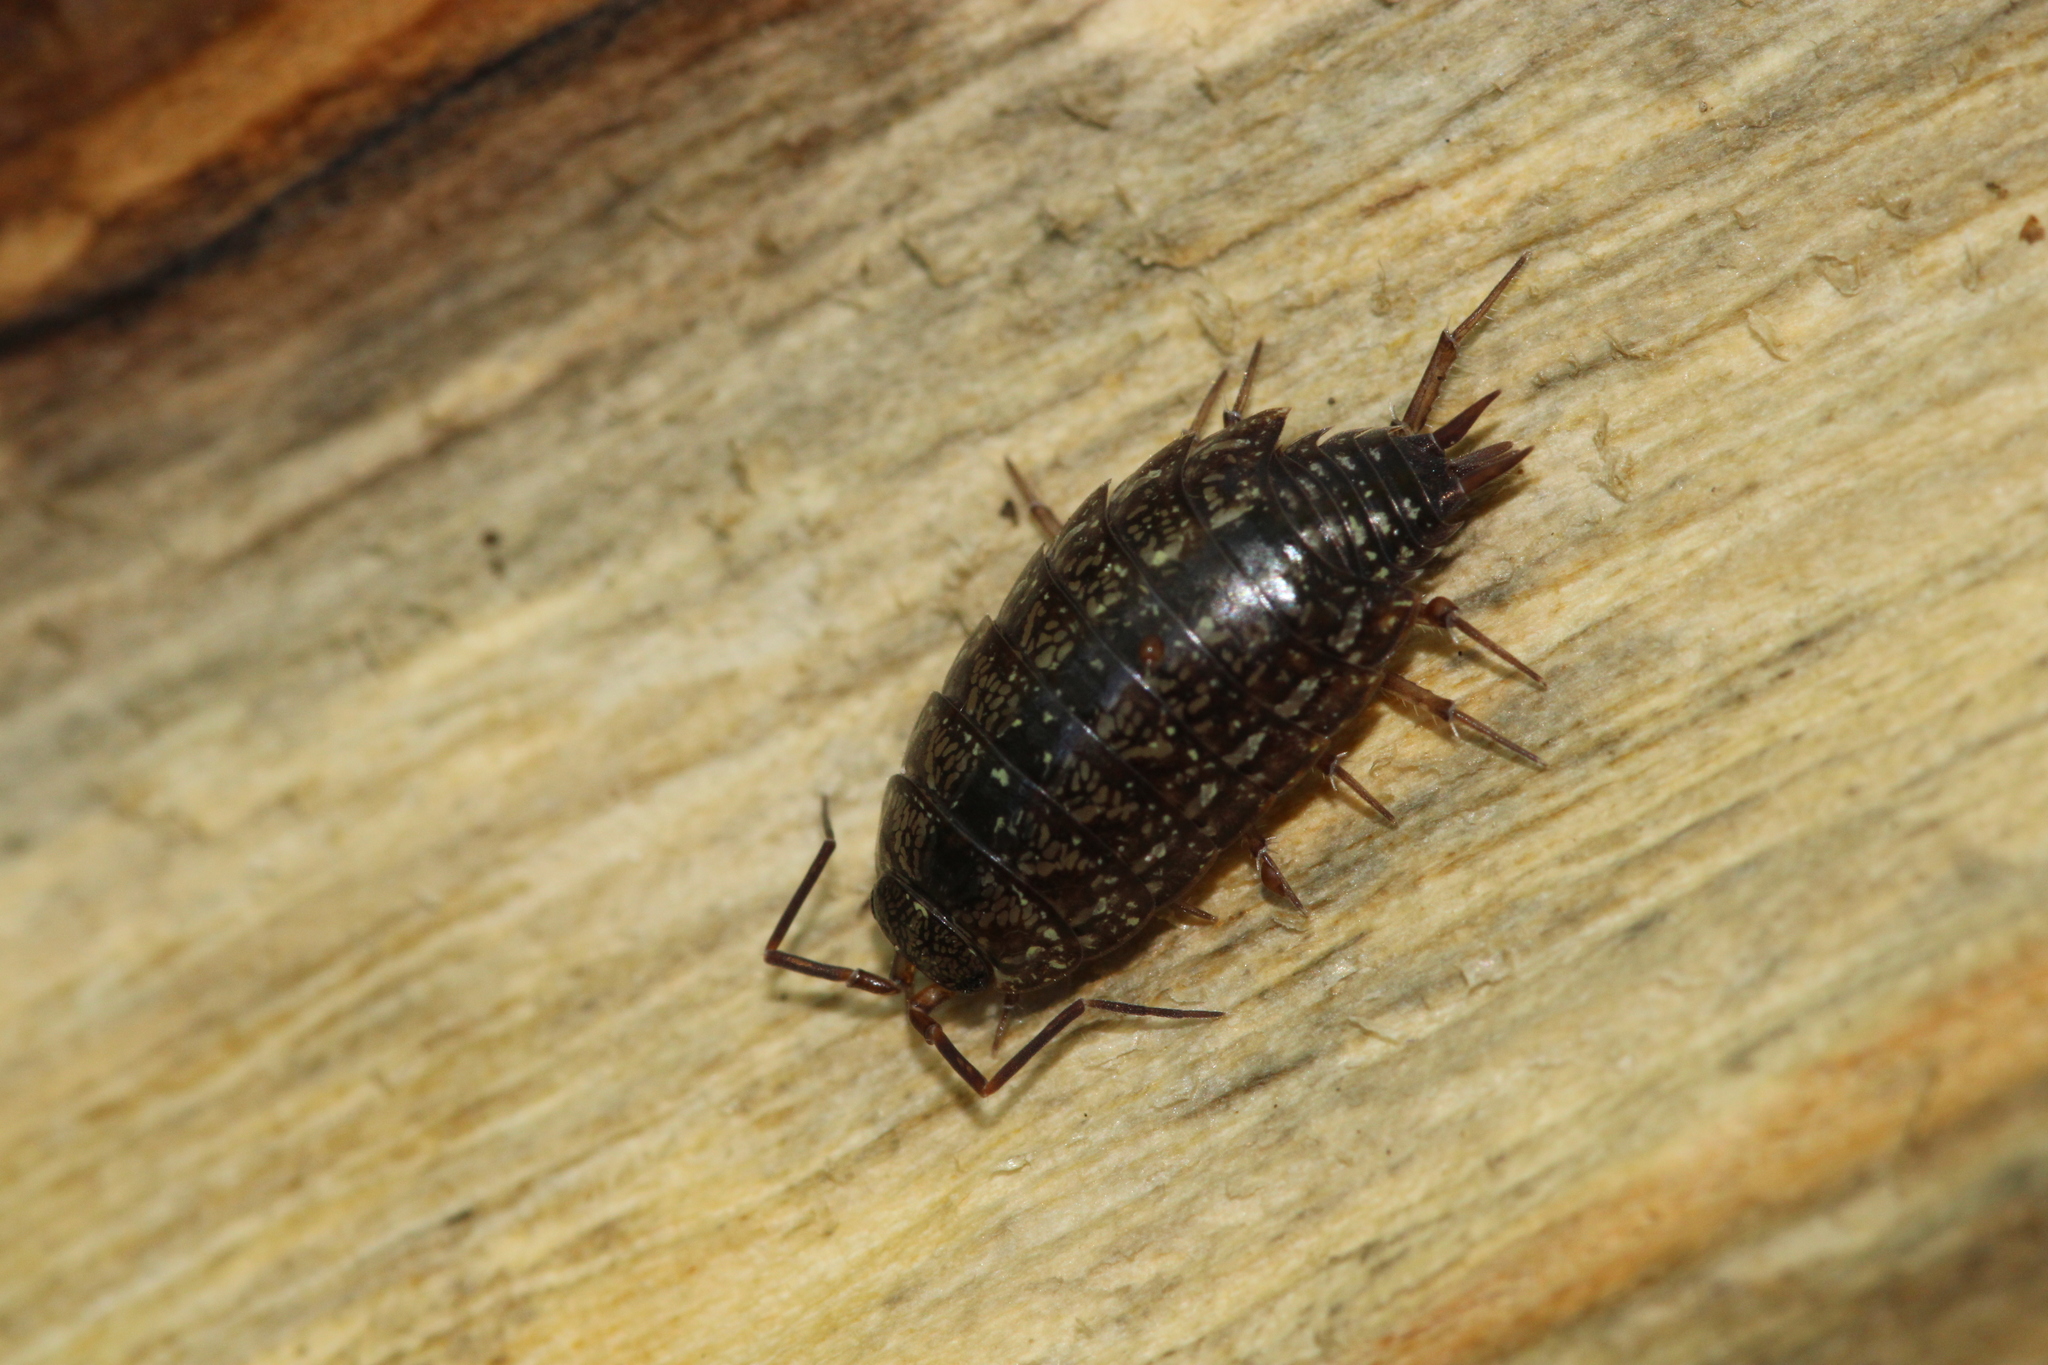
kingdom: Animalia
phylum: Arthropoda
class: Malacostraca
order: Isopoda
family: Philosciidae
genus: Philoscia
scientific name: Philoscia affinis
